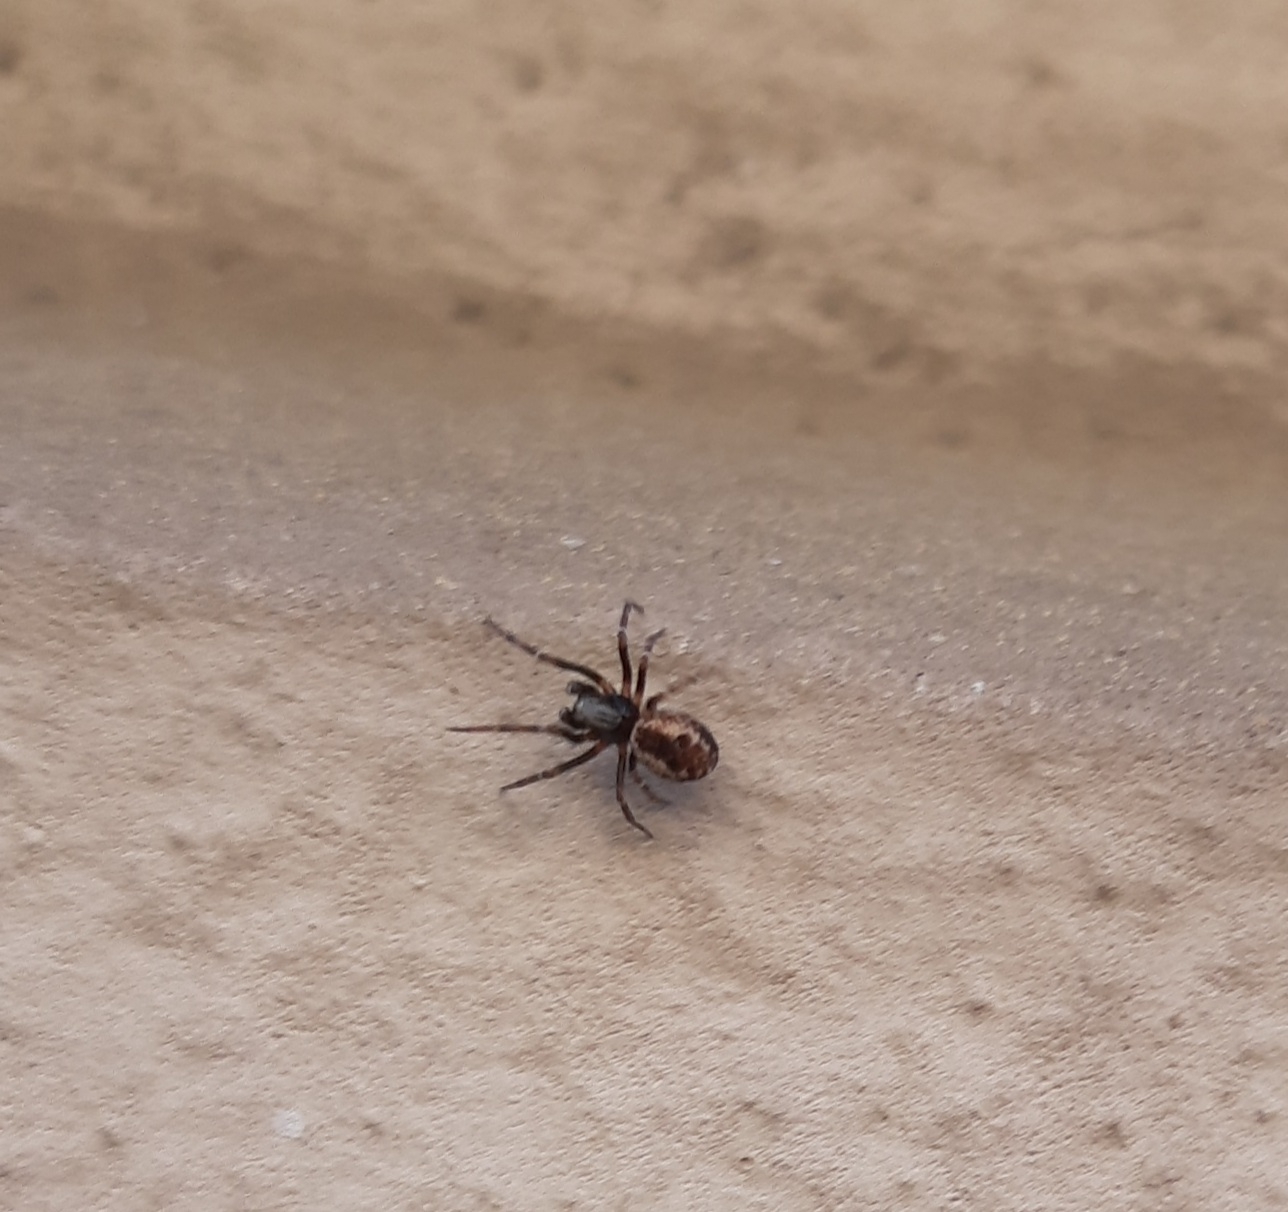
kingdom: Animalia
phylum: Arthropoda
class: Arachnida
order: Araneae
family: Dictynidae
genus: Brigittea
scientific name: Brigittea civica
